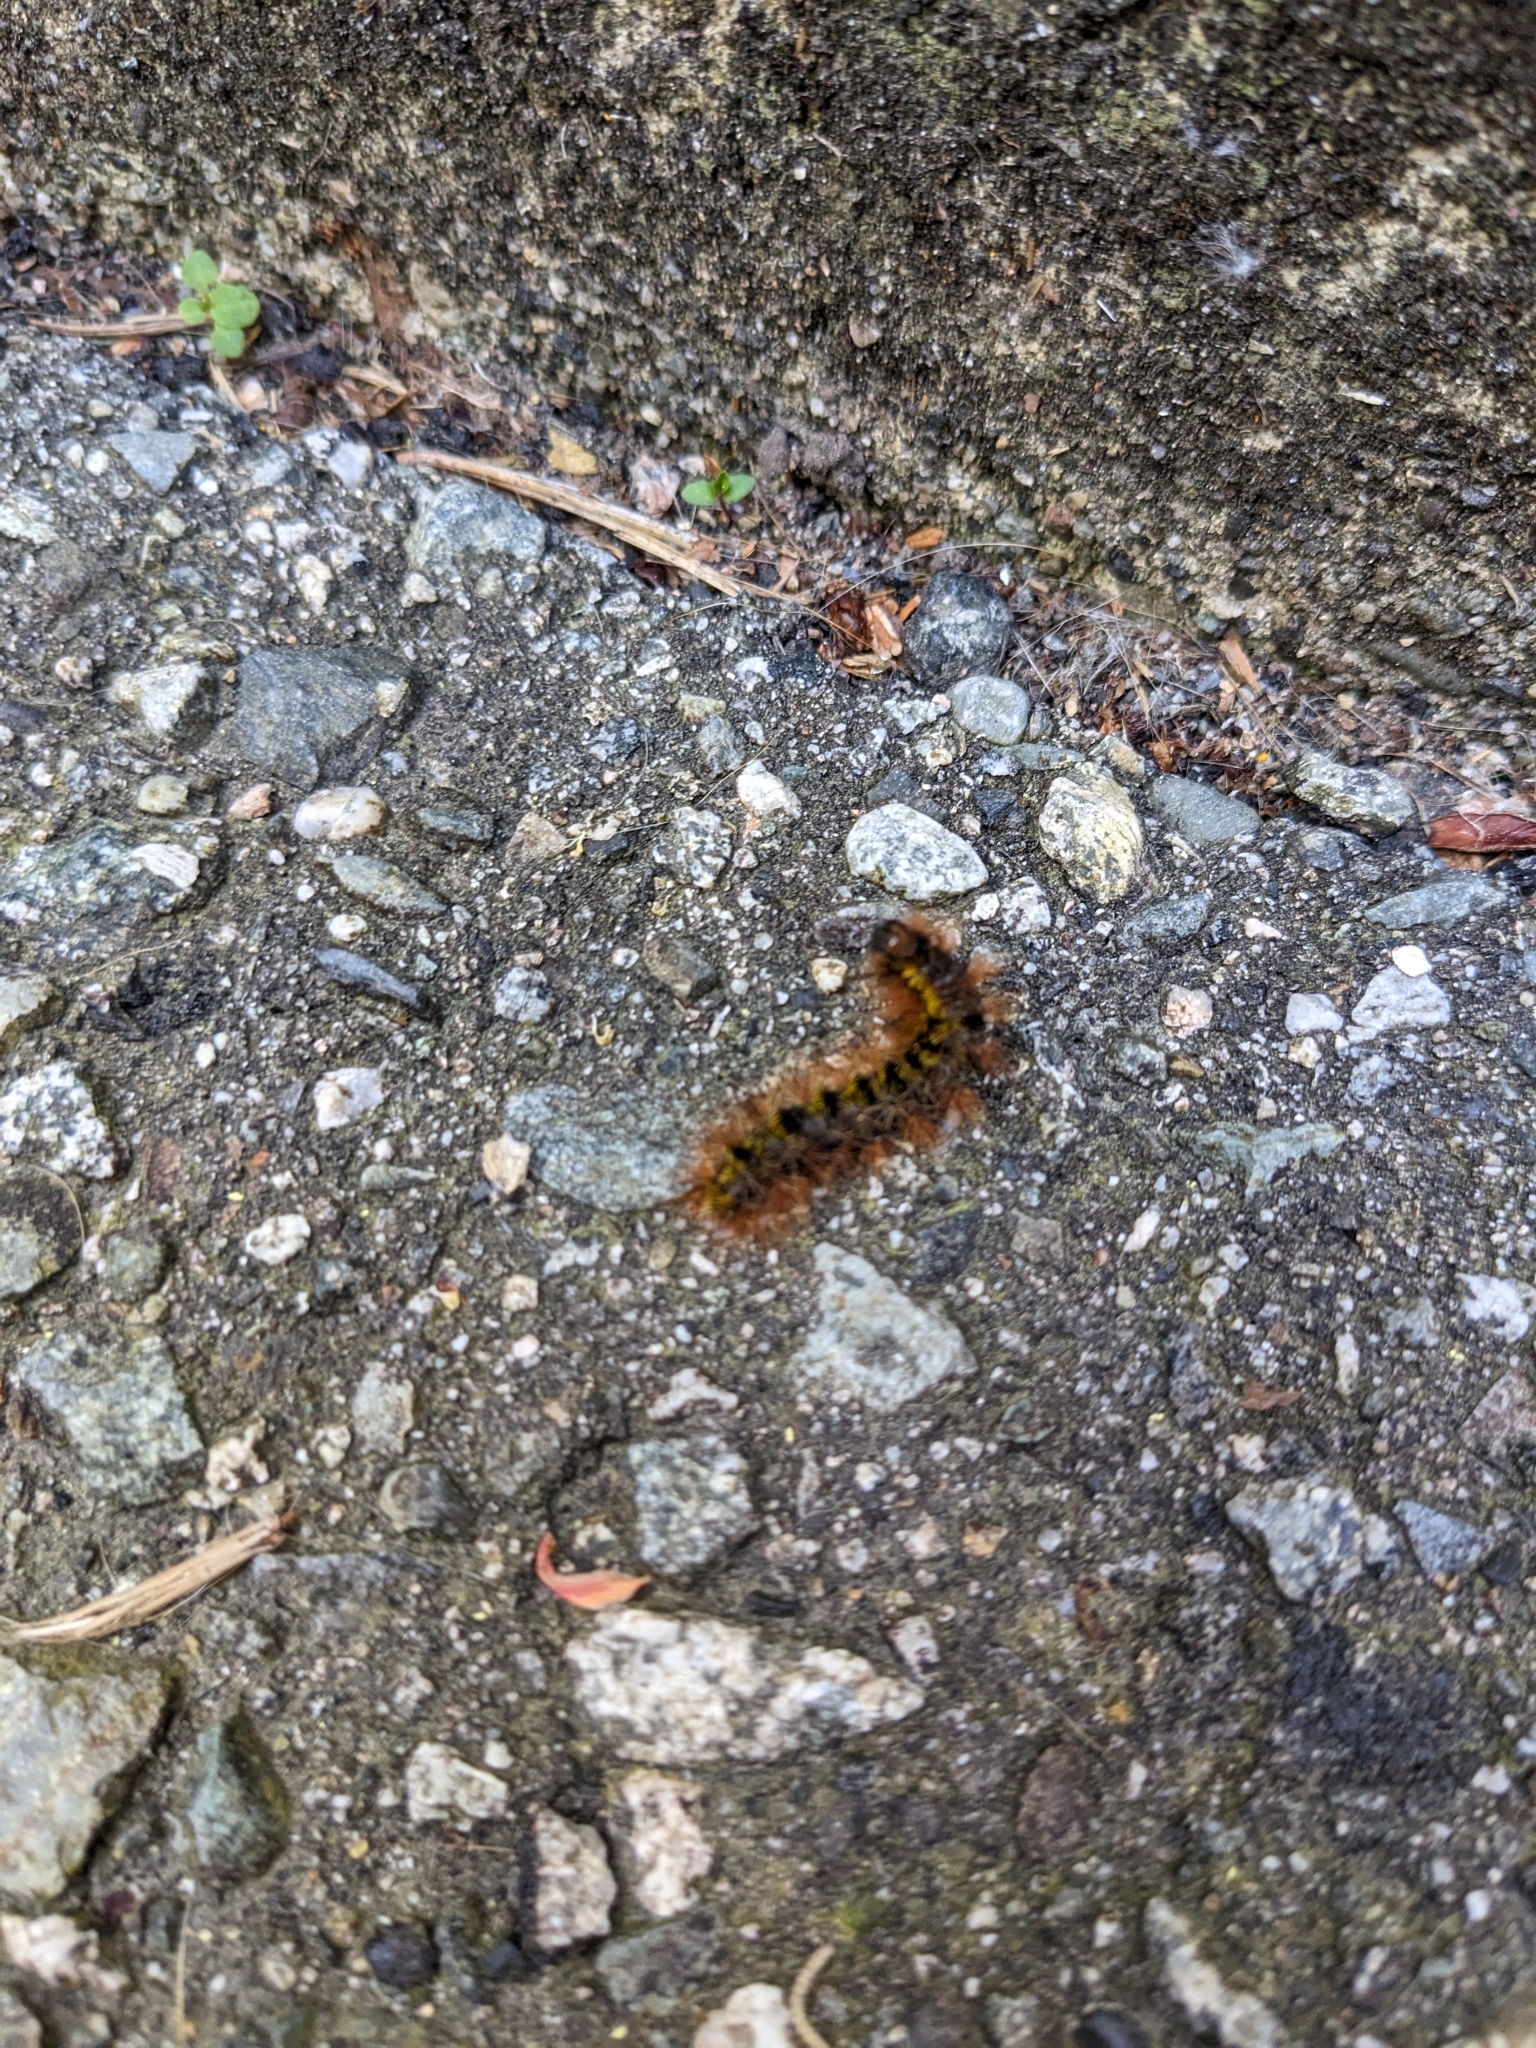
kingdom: Animalia
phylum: Arthropoda
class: Insecta
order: Lepidoptera
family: Erebidae
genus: Lophocampa
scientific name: Lophocampa argentata
